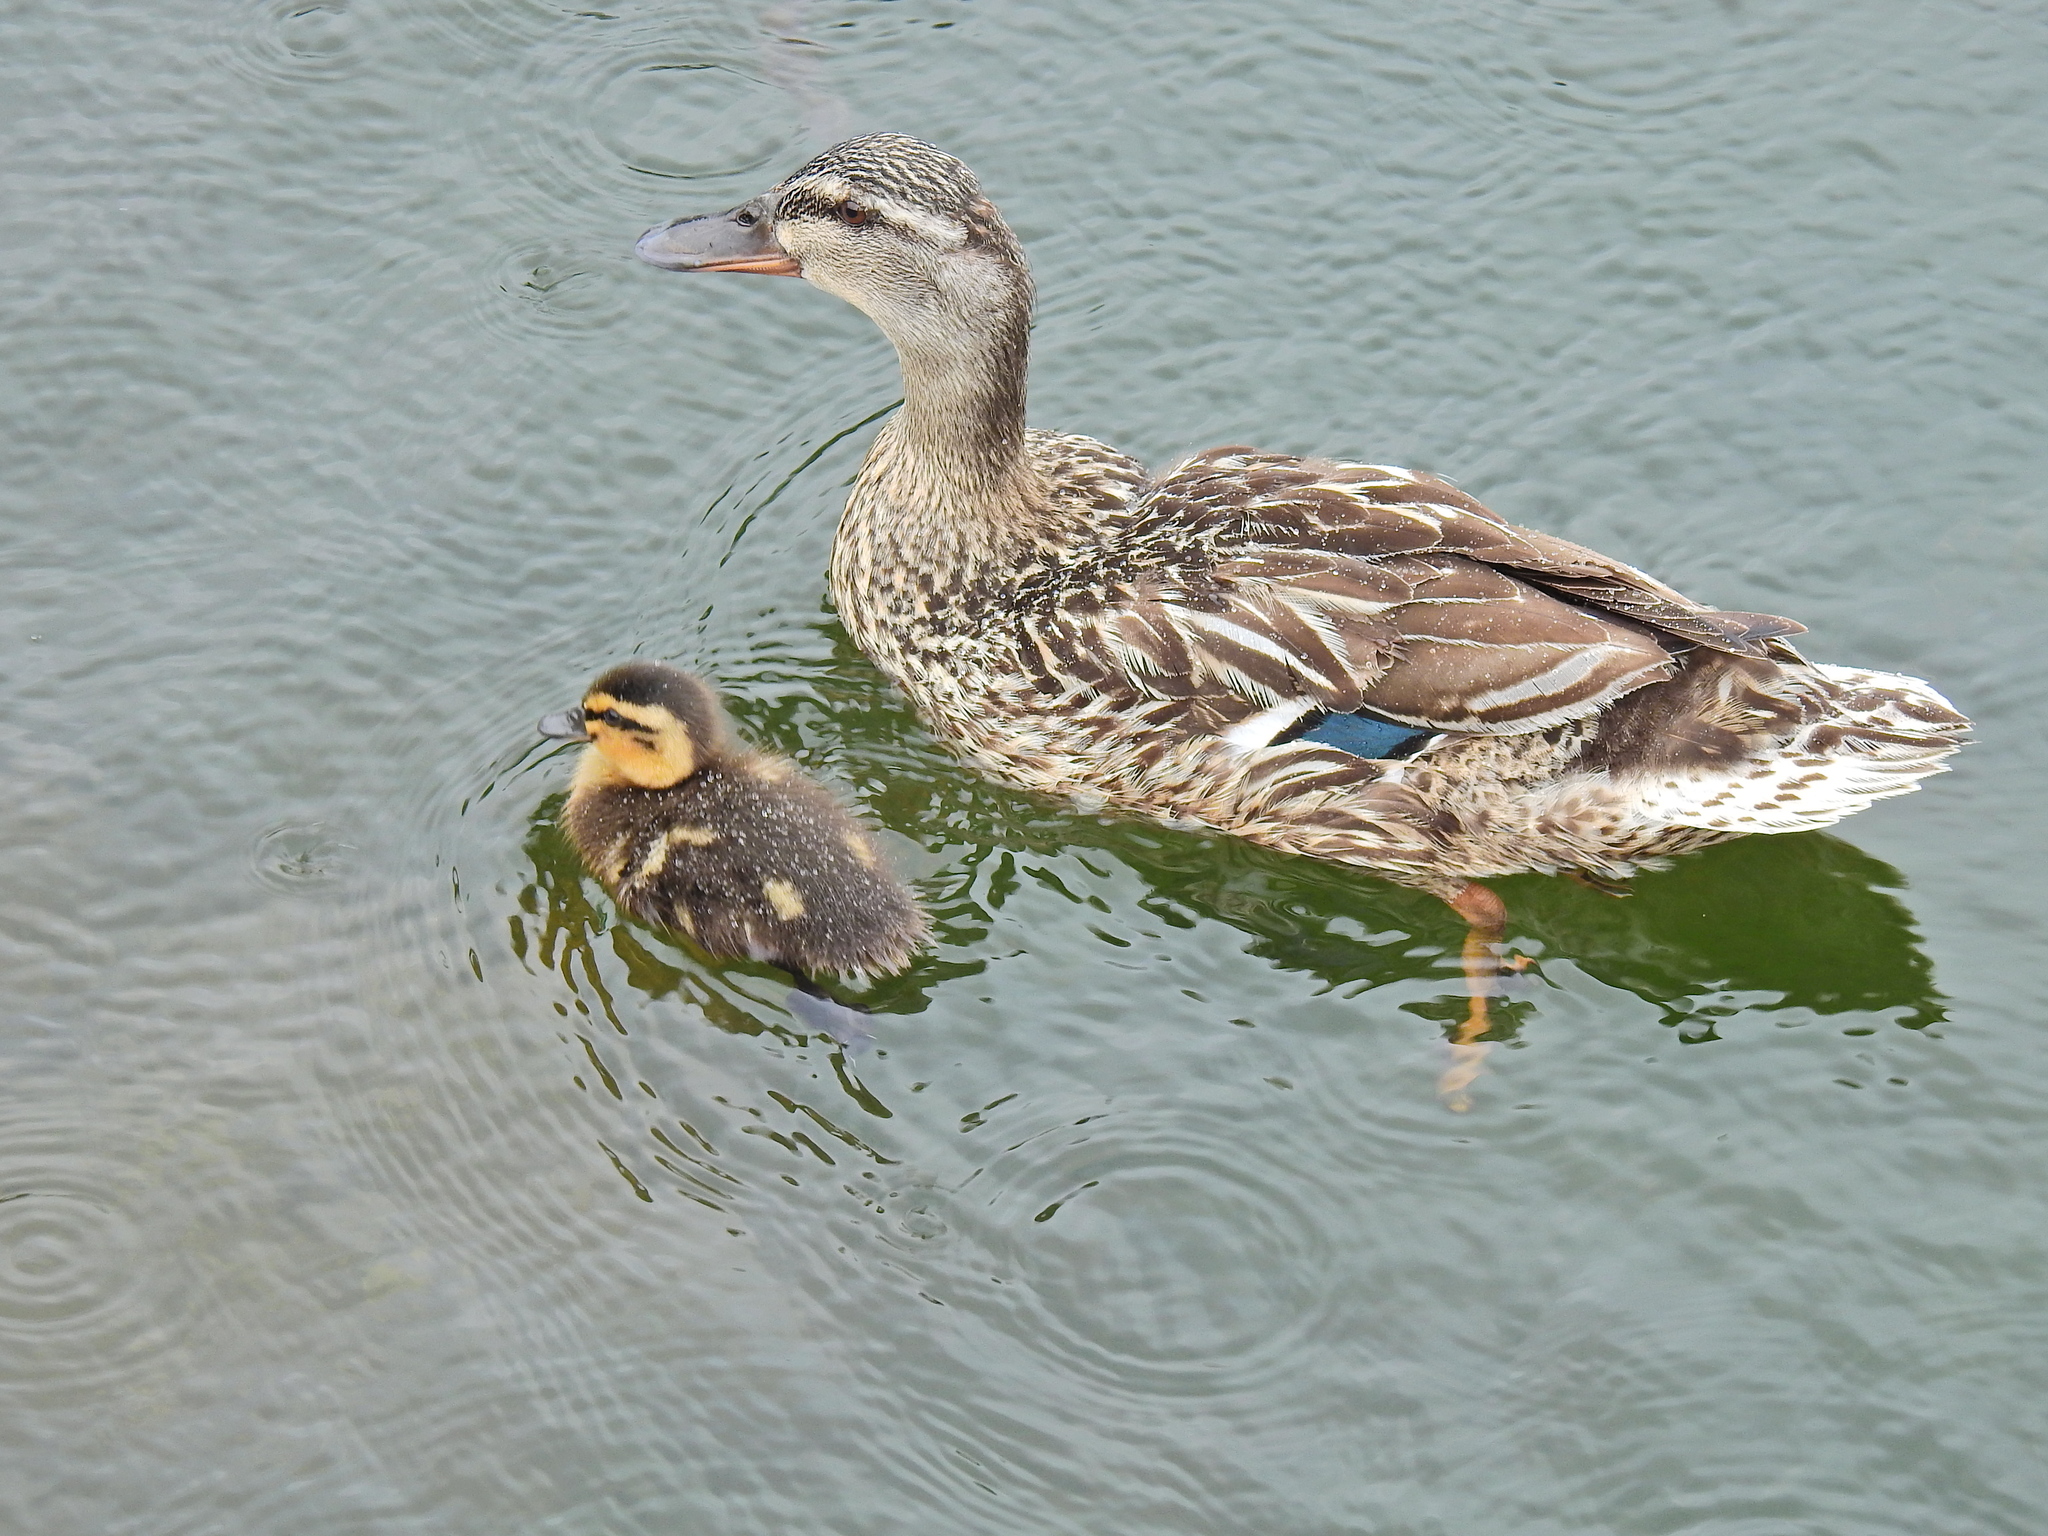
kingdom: Animalia
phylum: Chordata
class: Aves
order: Anseriformes
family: Anatidae
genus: Anas
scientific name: Anas platyrhynchos
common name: Mallard
